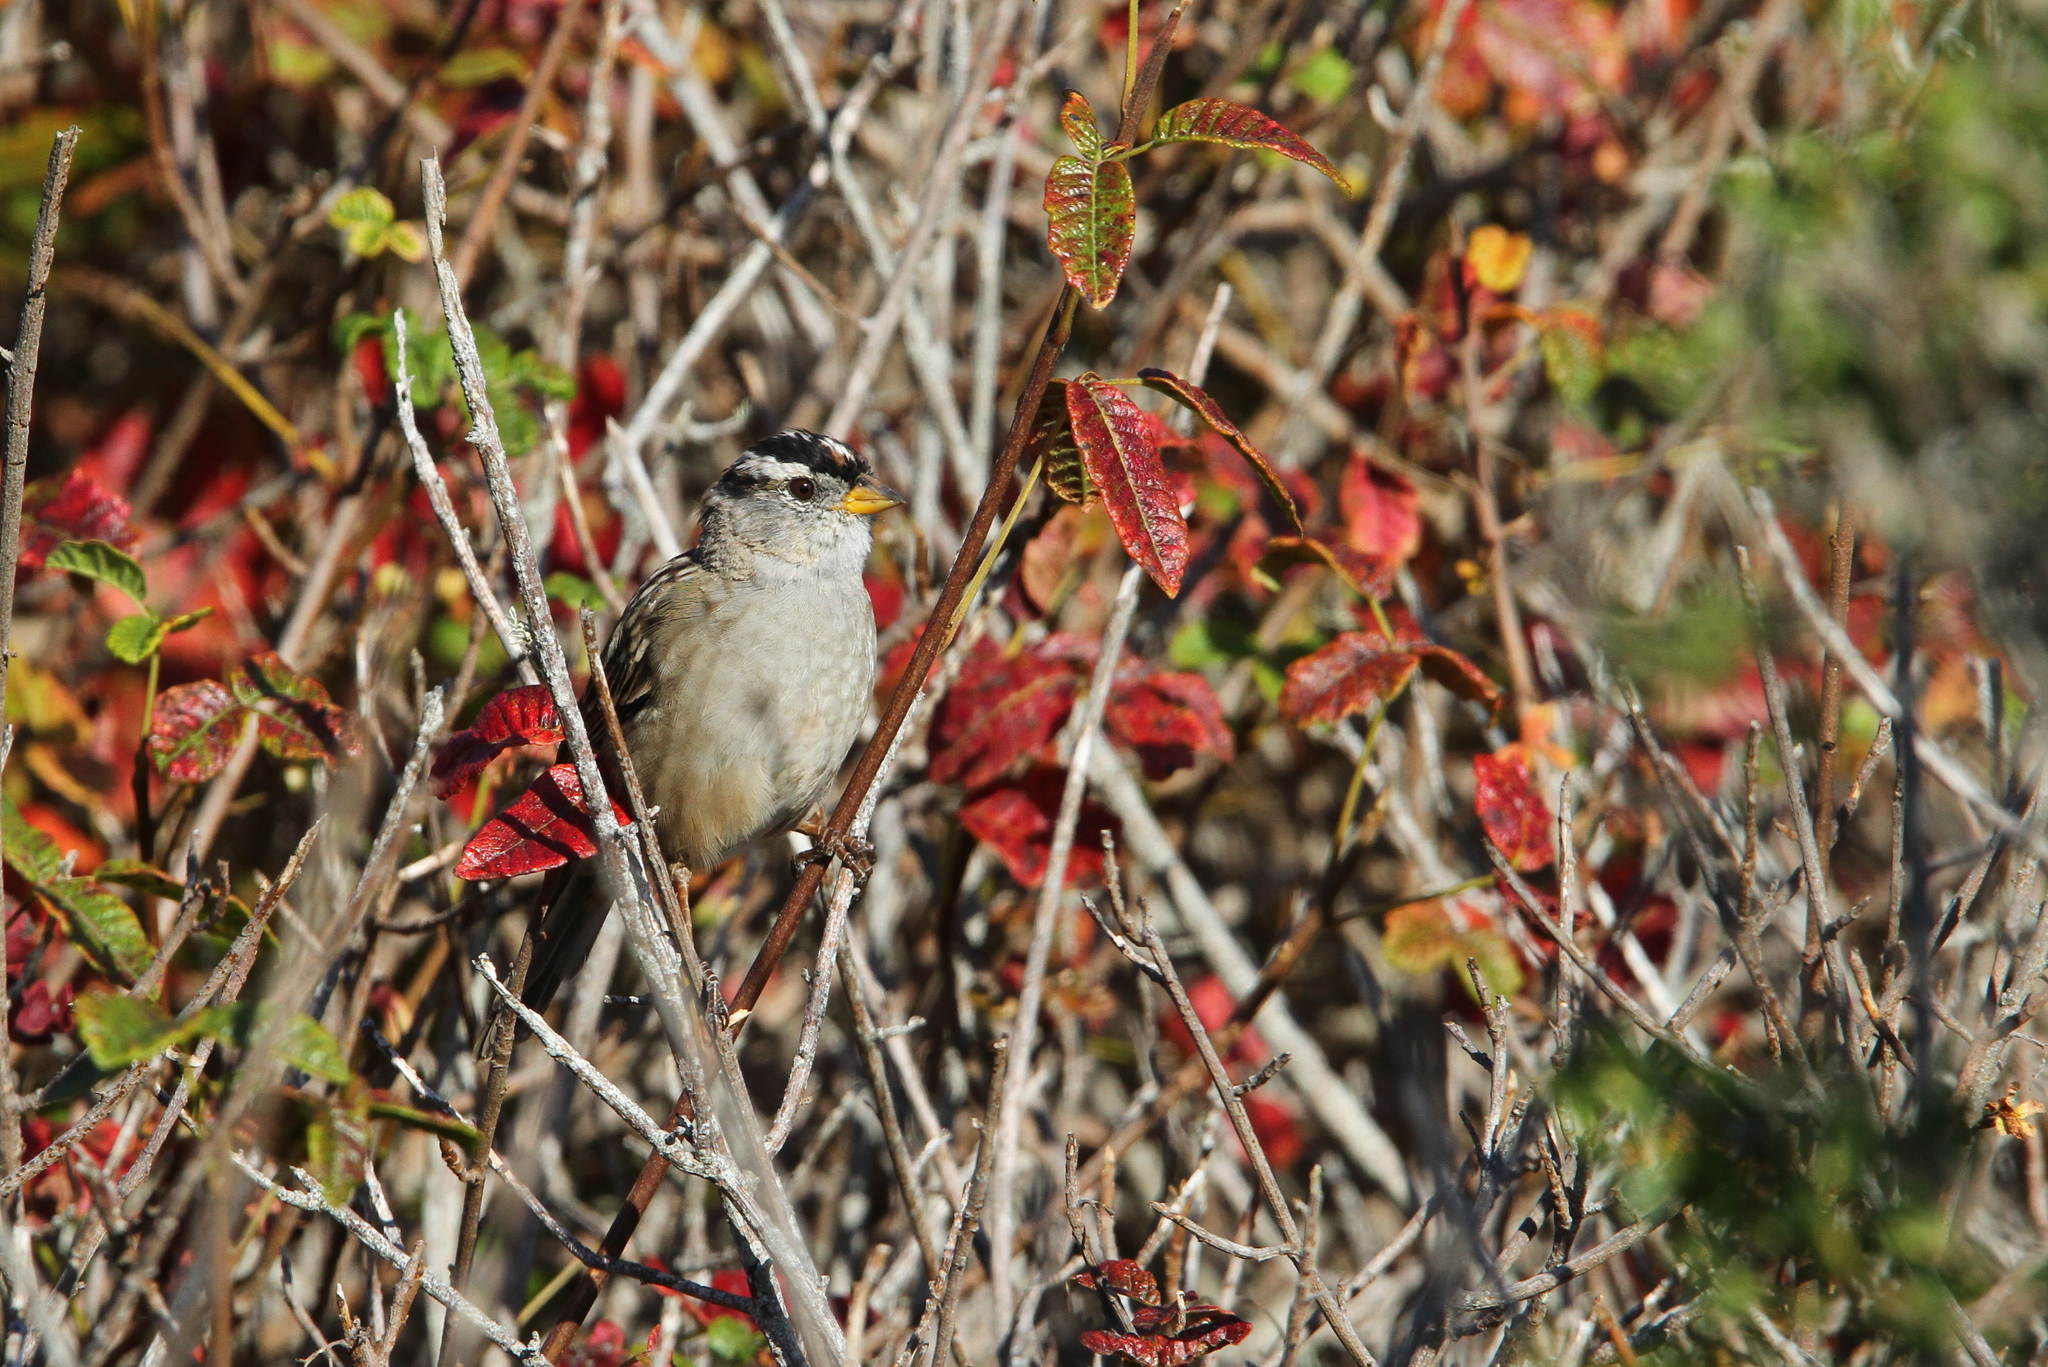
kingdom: Animalia
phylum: Chordata
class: Aves
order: Passeriformes
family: Passerellidae
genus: Zonotrichia
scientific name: Zonotrichia leucophrys
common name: White-crowned sparrow
